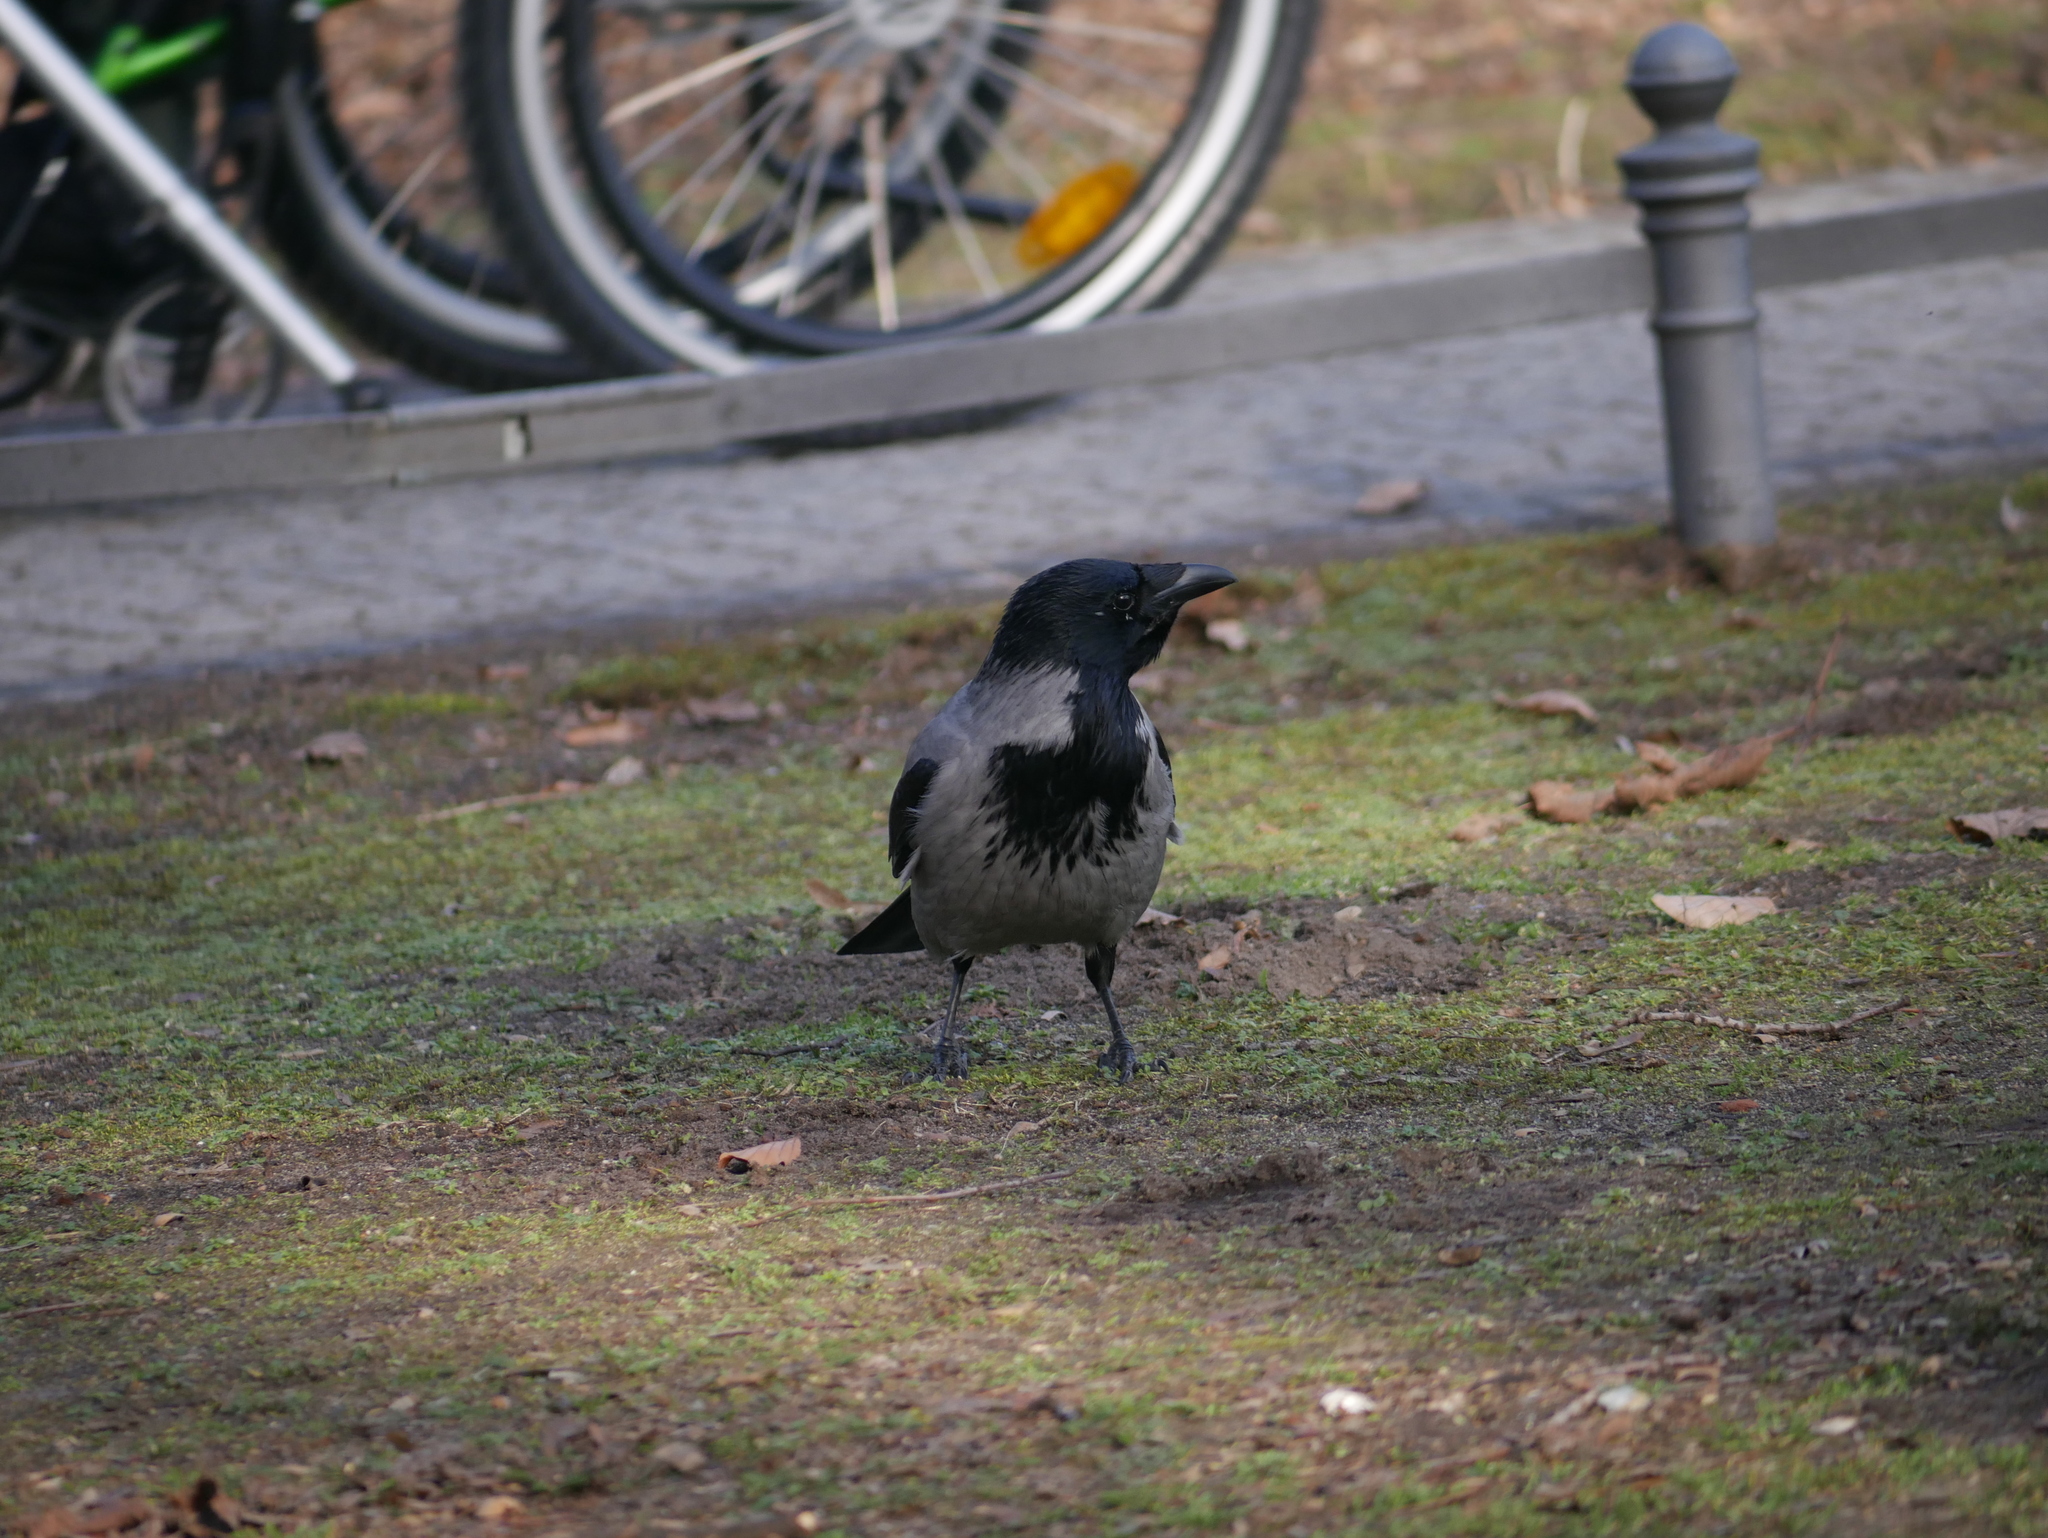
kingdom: Animalia
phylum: Chordata
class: Aves
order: Passeriformes
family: Corvidae
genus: Corvus
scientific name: Corvus cornix
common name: Hooded crow
